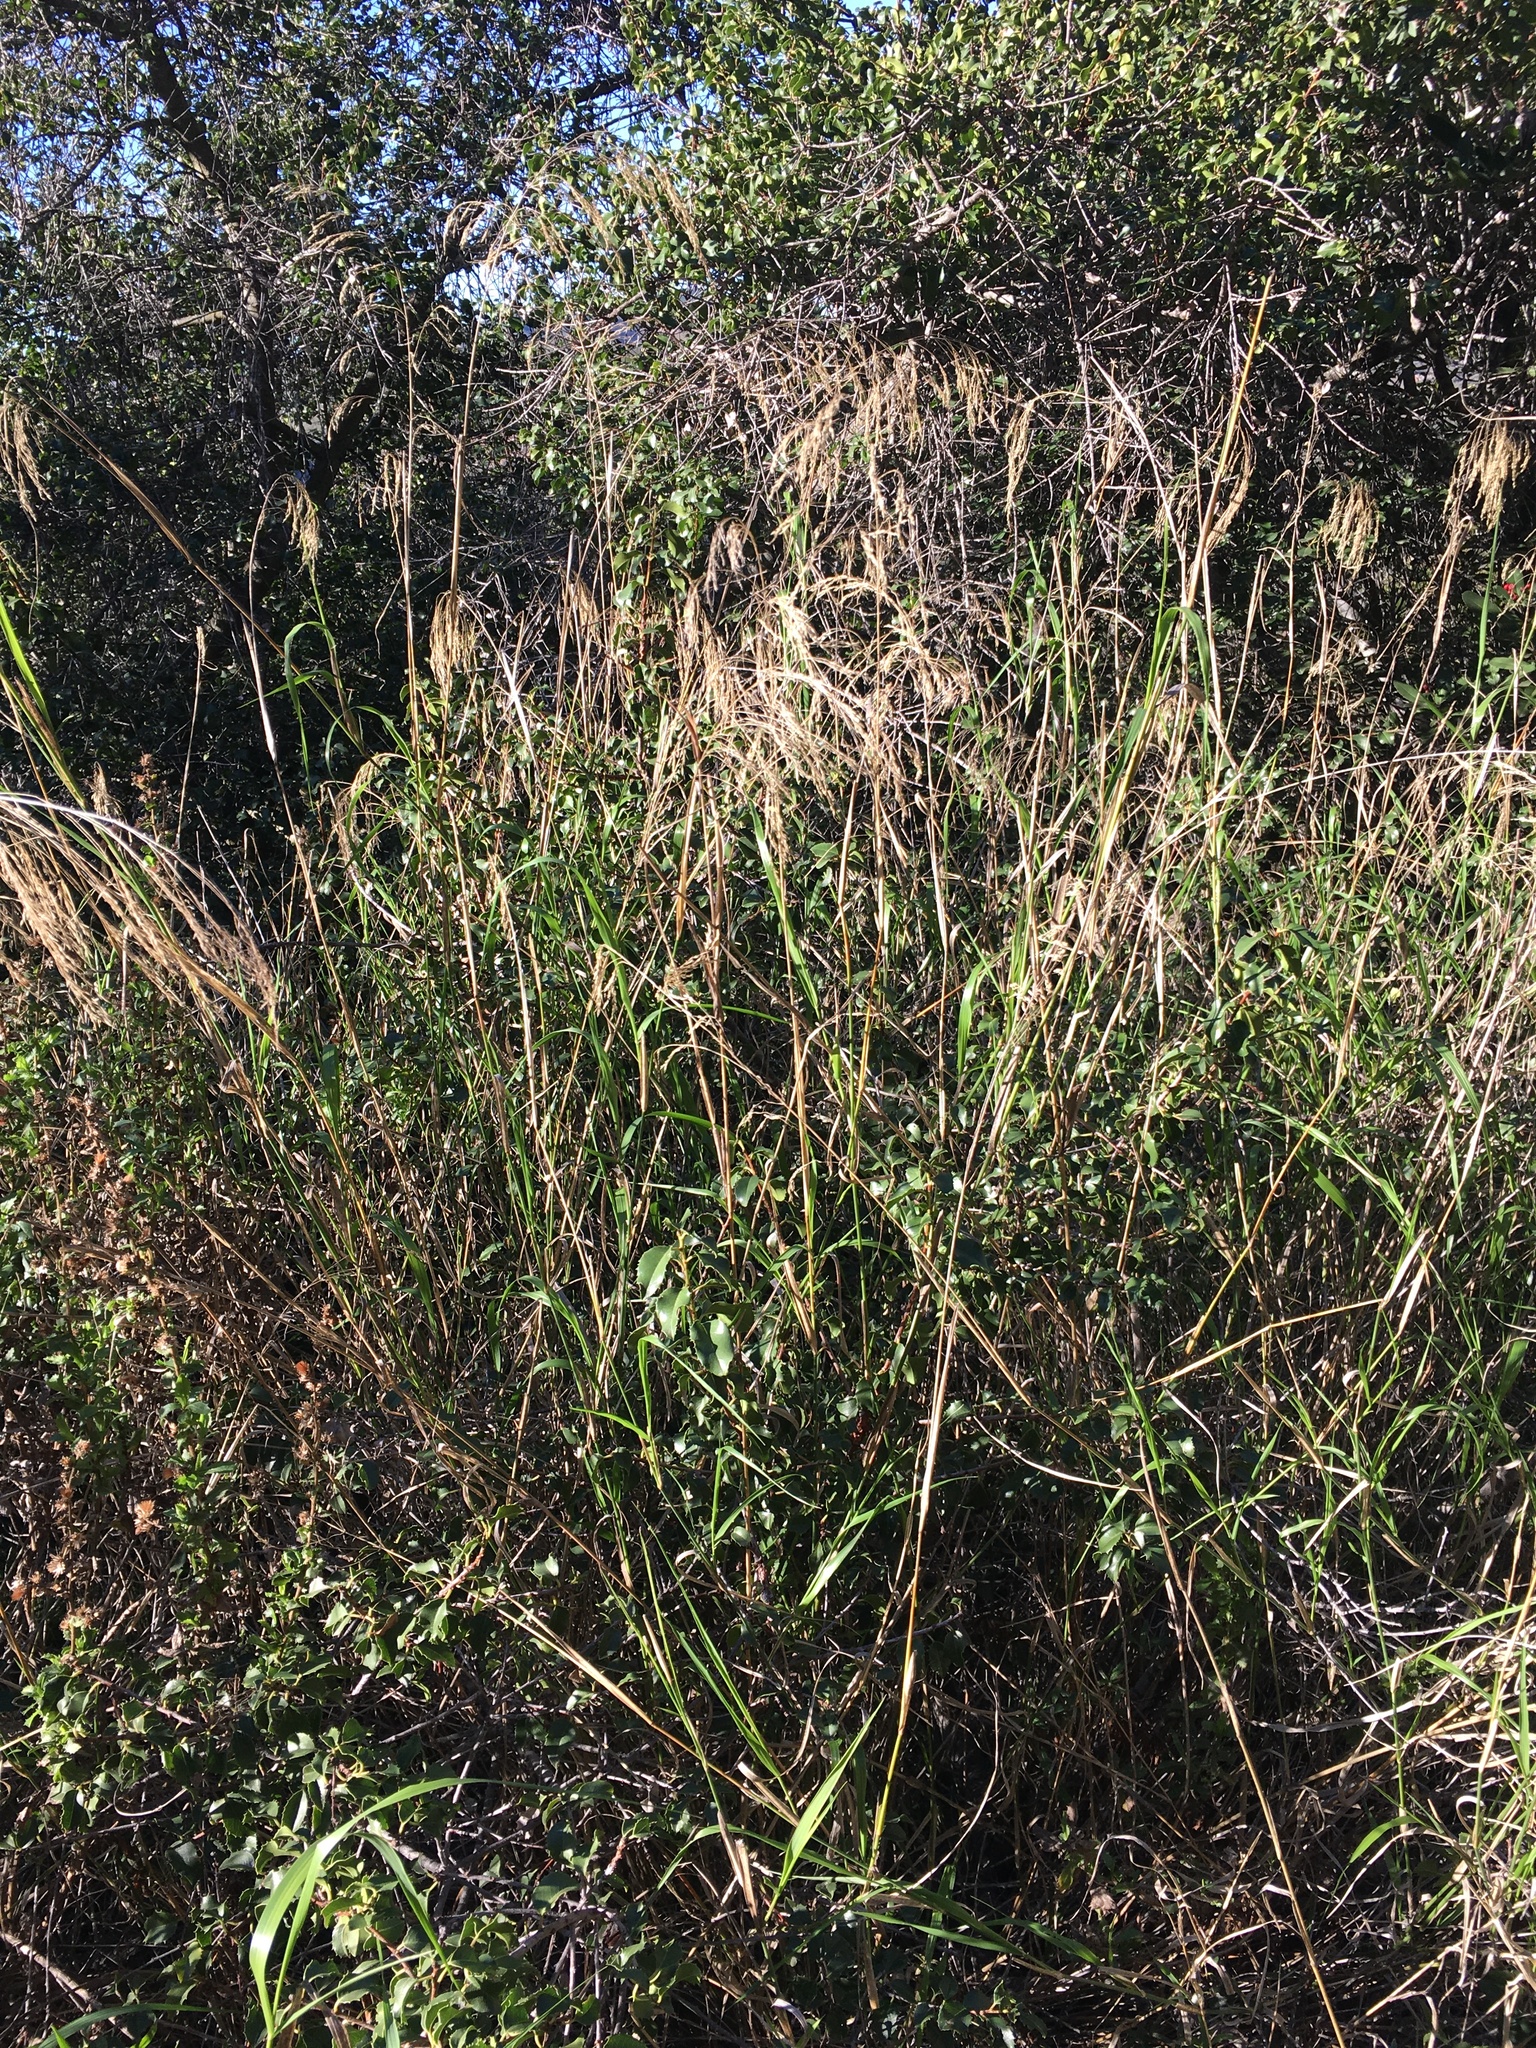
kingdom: Plantae
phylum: Tracheophyta
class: Liliopsida
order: Poales
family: Poaceae
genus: Oloptum
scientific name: Oloptum miliaceum
